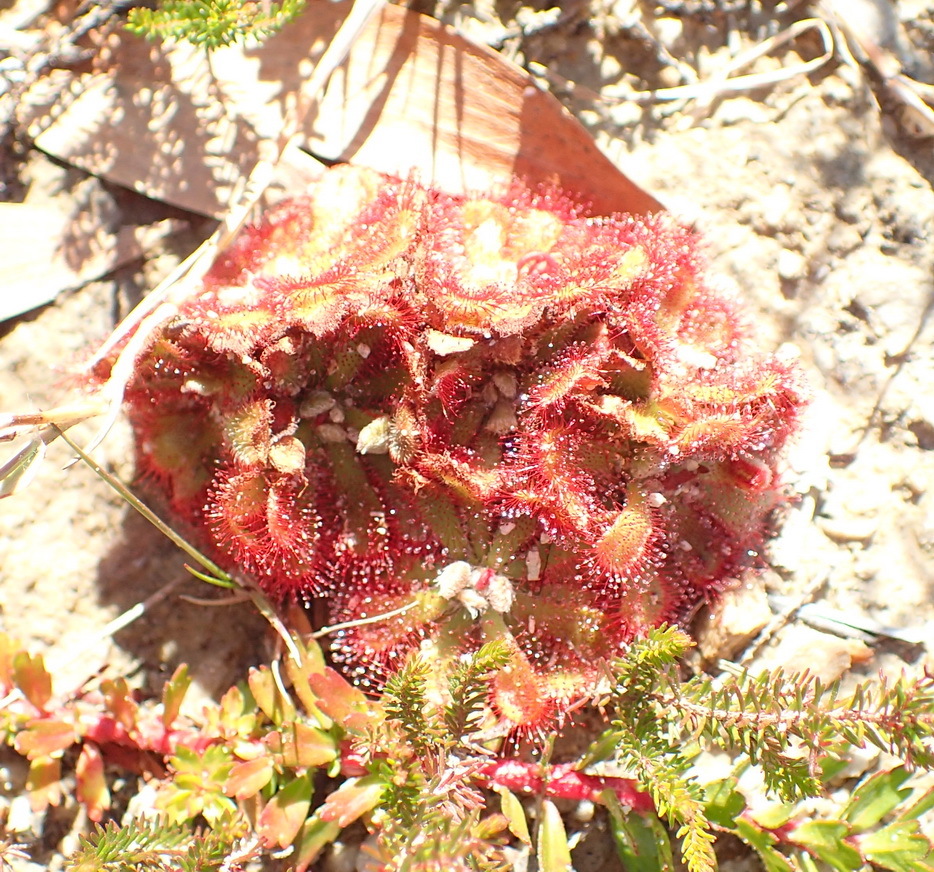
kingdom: Plantae
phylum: Tracheophyta
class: Magnoliopsida
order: Caryophyllales
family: Droseraceae
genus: Drosera
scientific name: Drosera aliciae
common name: Alice sundew
